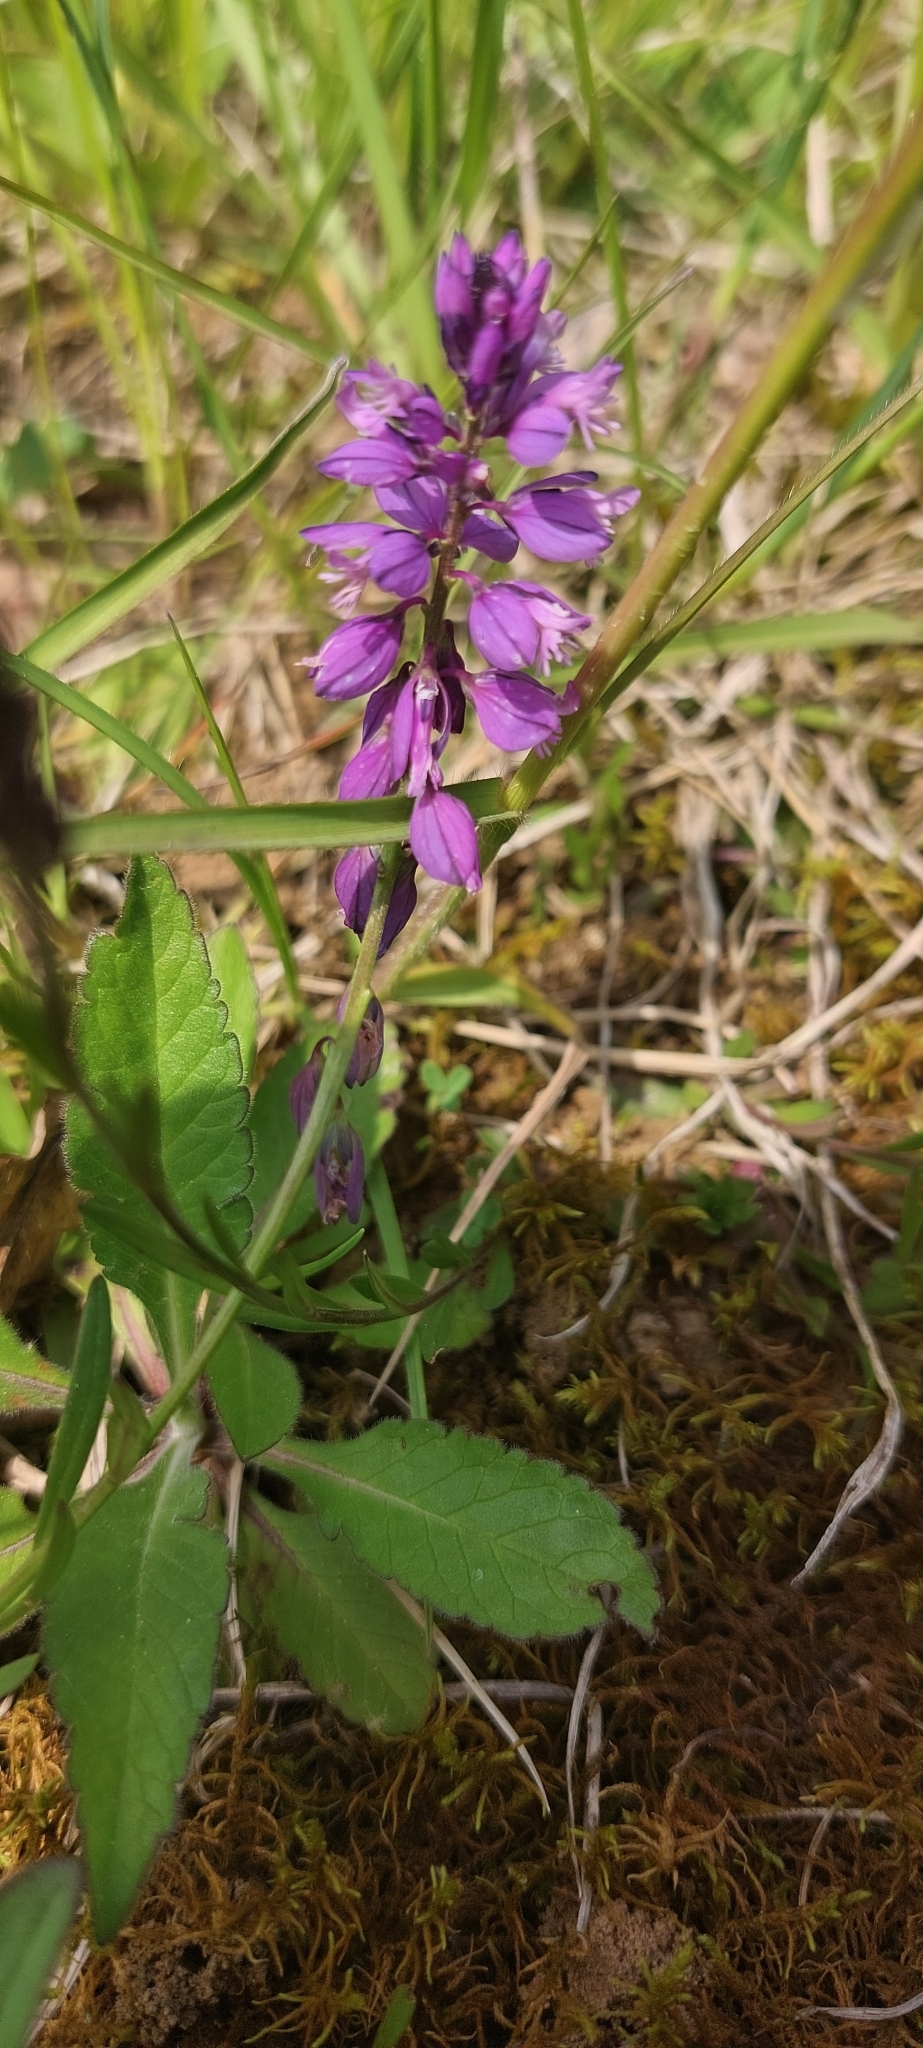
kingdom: Plantae
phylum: Tracheophyta
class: Magnoliopsida
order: Fabales
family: Polygalaceae
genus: Polygala
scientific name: Polygala comosa
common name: Tufted milkwort
